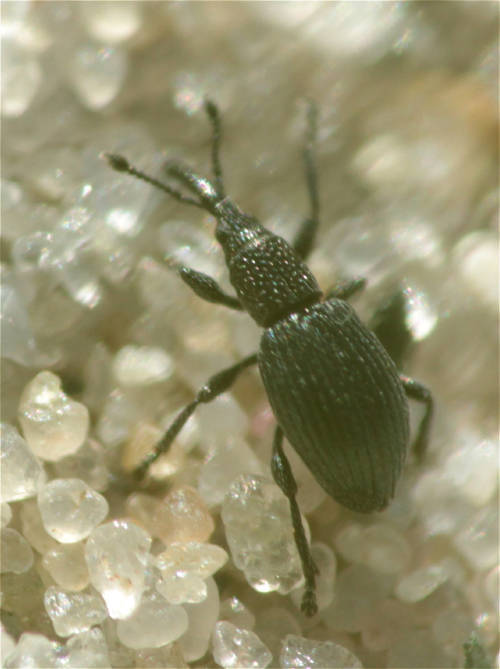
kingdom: Animalia
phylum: Arthropoda
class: Insecta
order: Coleoptera
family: Apionidae
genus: Ceratapion
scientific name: Ceratapion onopordi
